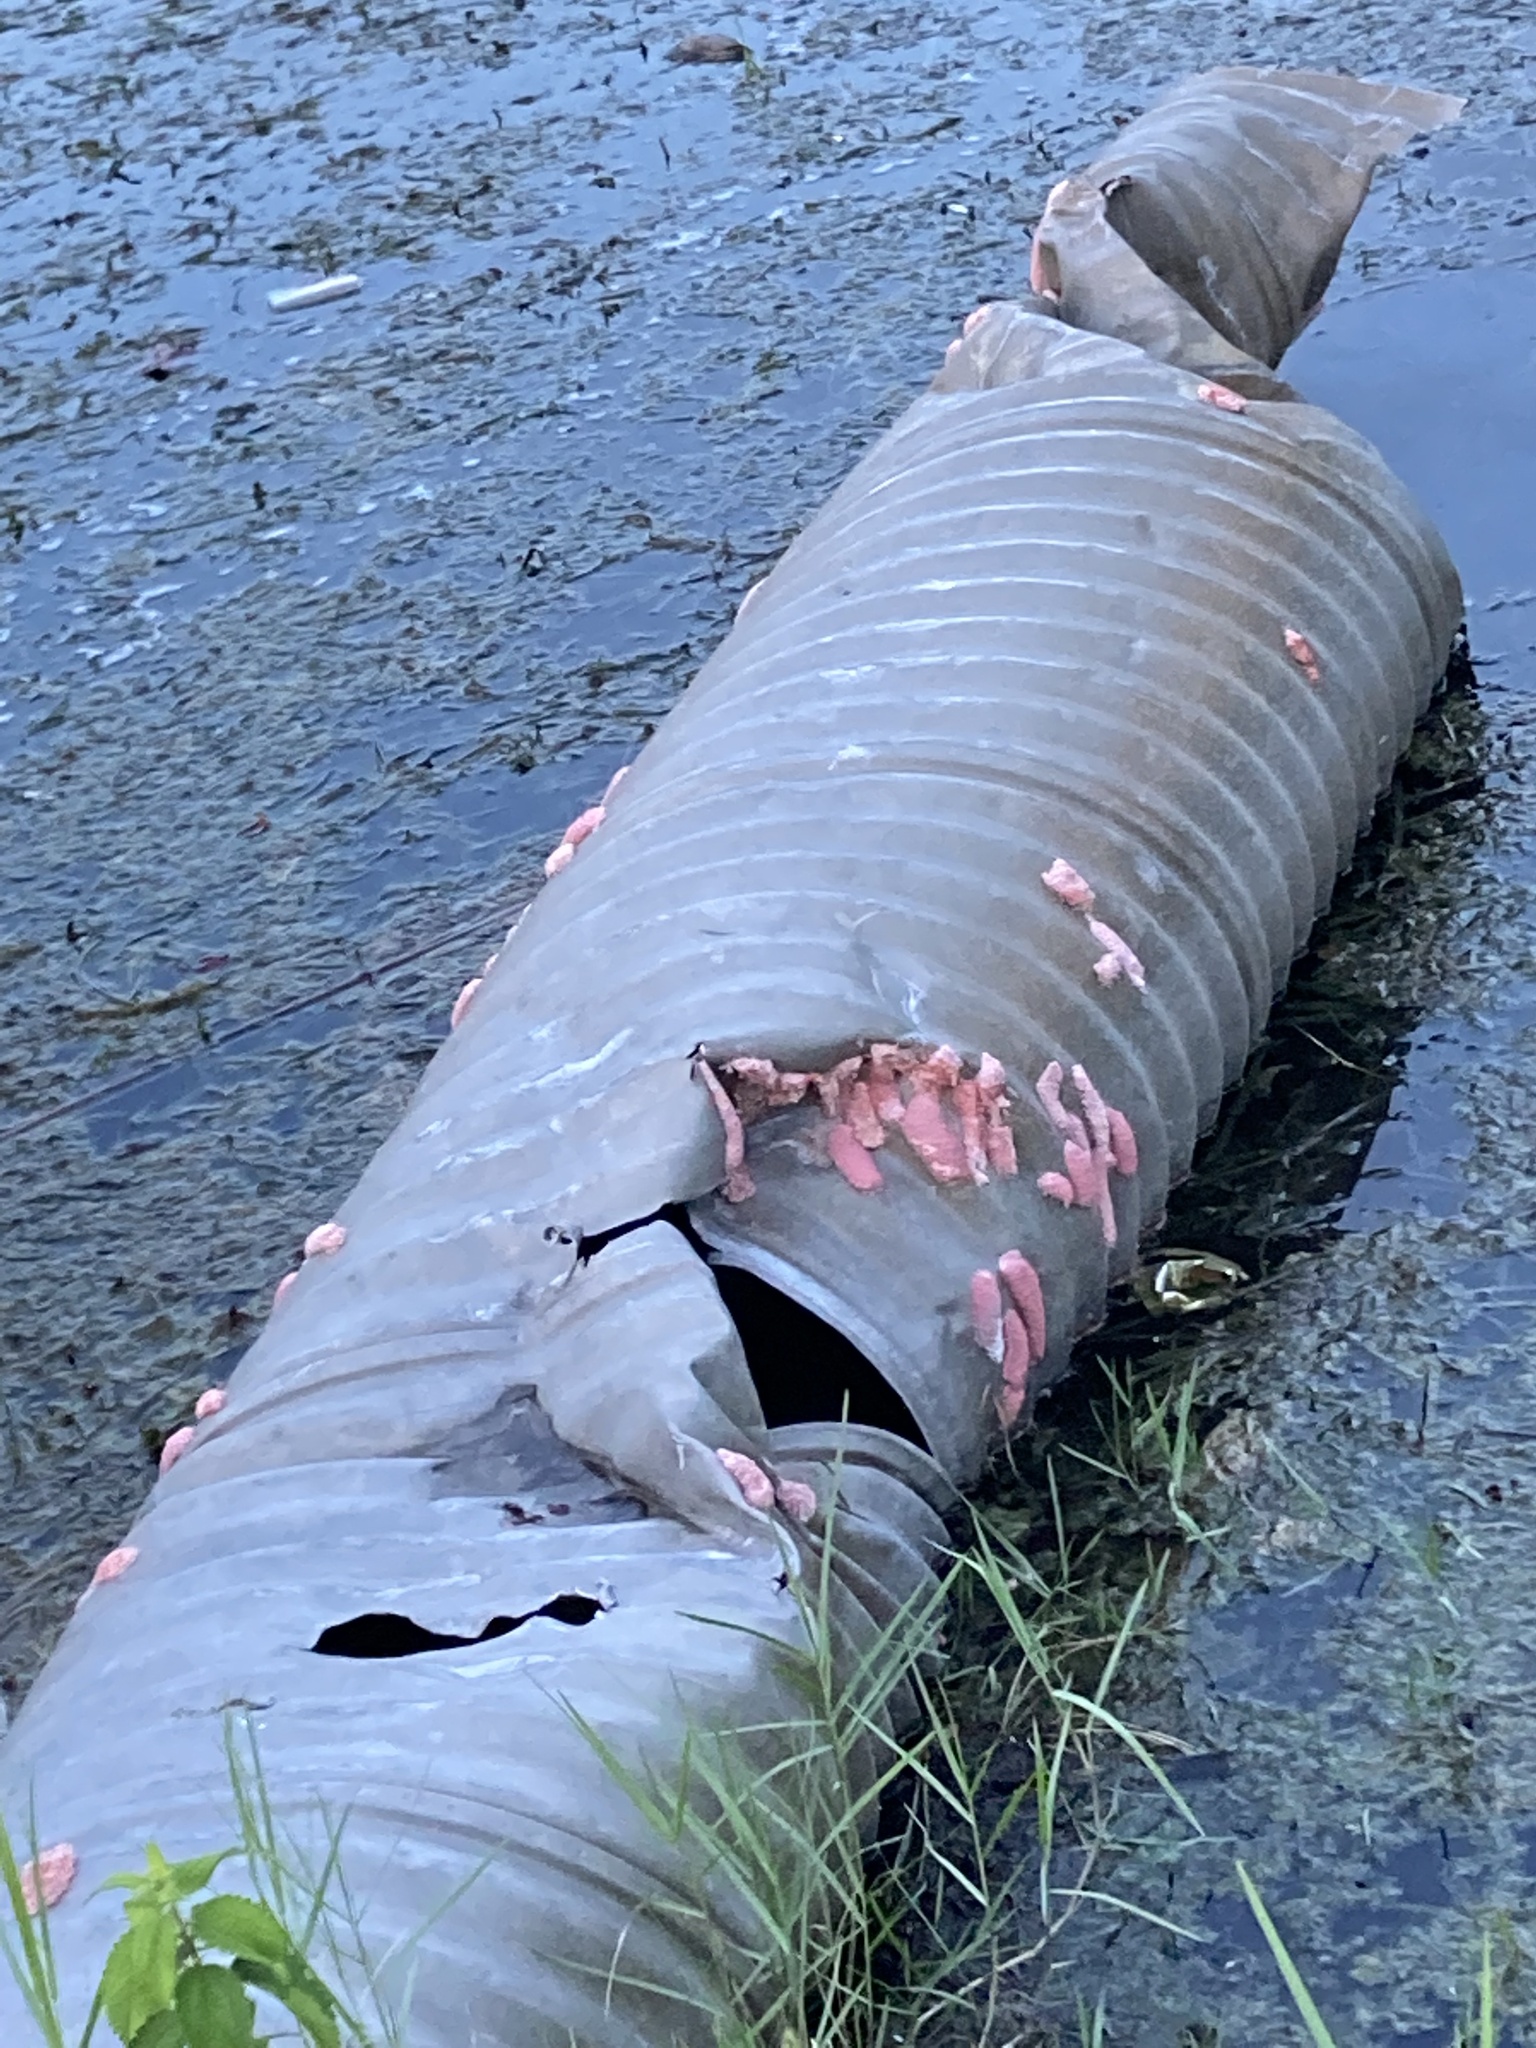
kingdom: Animalia
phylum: Mollusca
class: Gastropoda
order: Architaenioglossa
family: Ampullariidae
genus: Pomacea
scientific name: Pomacea maculata
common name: Giant applesnail
